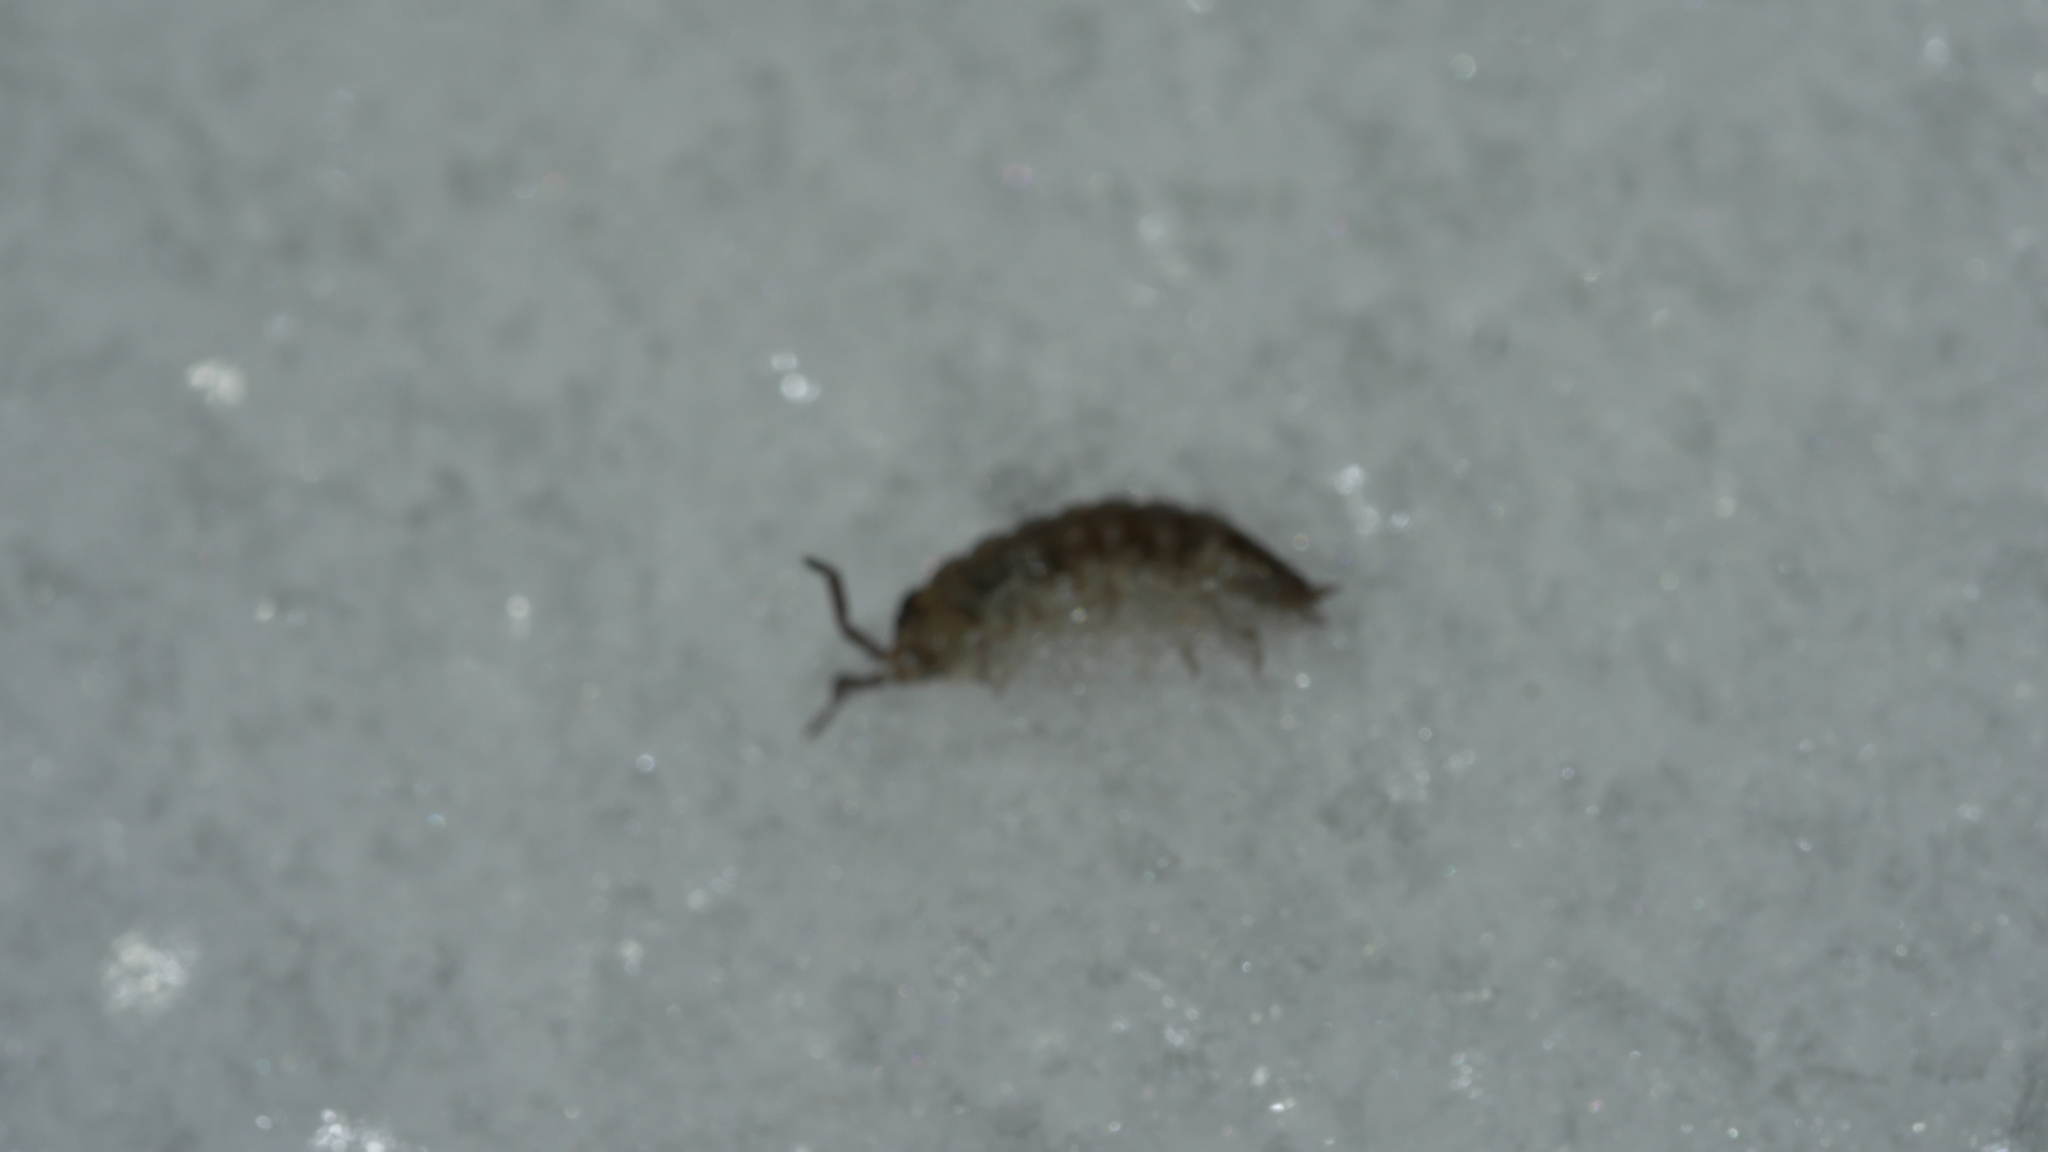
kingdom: Animalia
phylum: Arthropoda
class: Malacostraca
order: Isopoda
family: Porcellionidae
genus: Porcellio
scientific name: Porcellio scaber
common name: Common rough woodlouse
